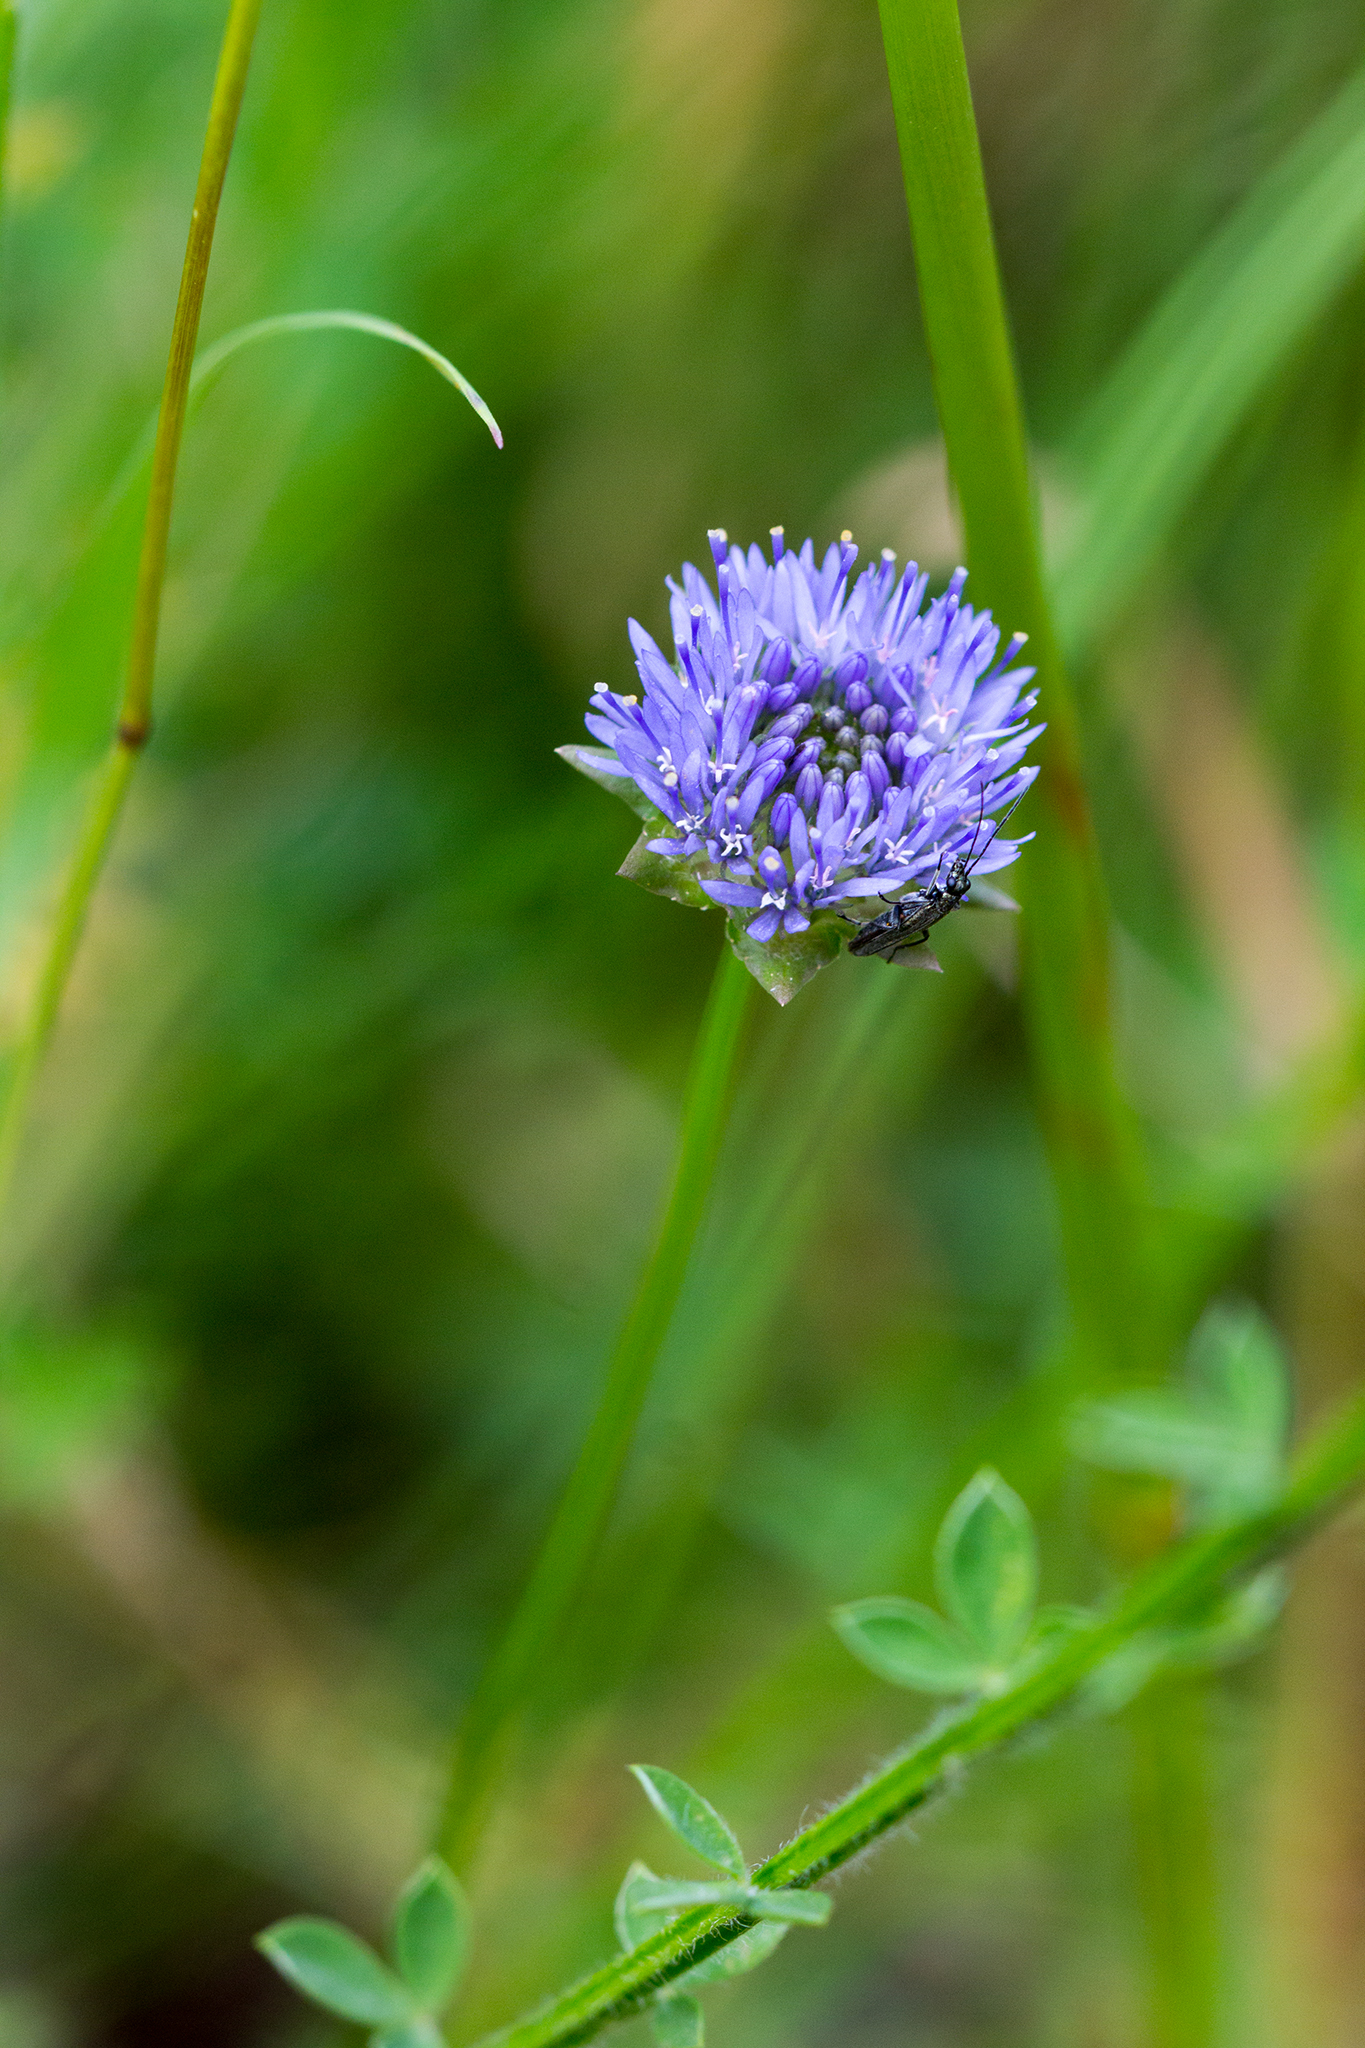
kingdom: Plantae
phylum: Tracheophyta
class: Magnoliopsida
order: Asterales
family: Campanulaceae
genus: Jasione
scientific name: Jasione montana
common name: Sheep's-bit
